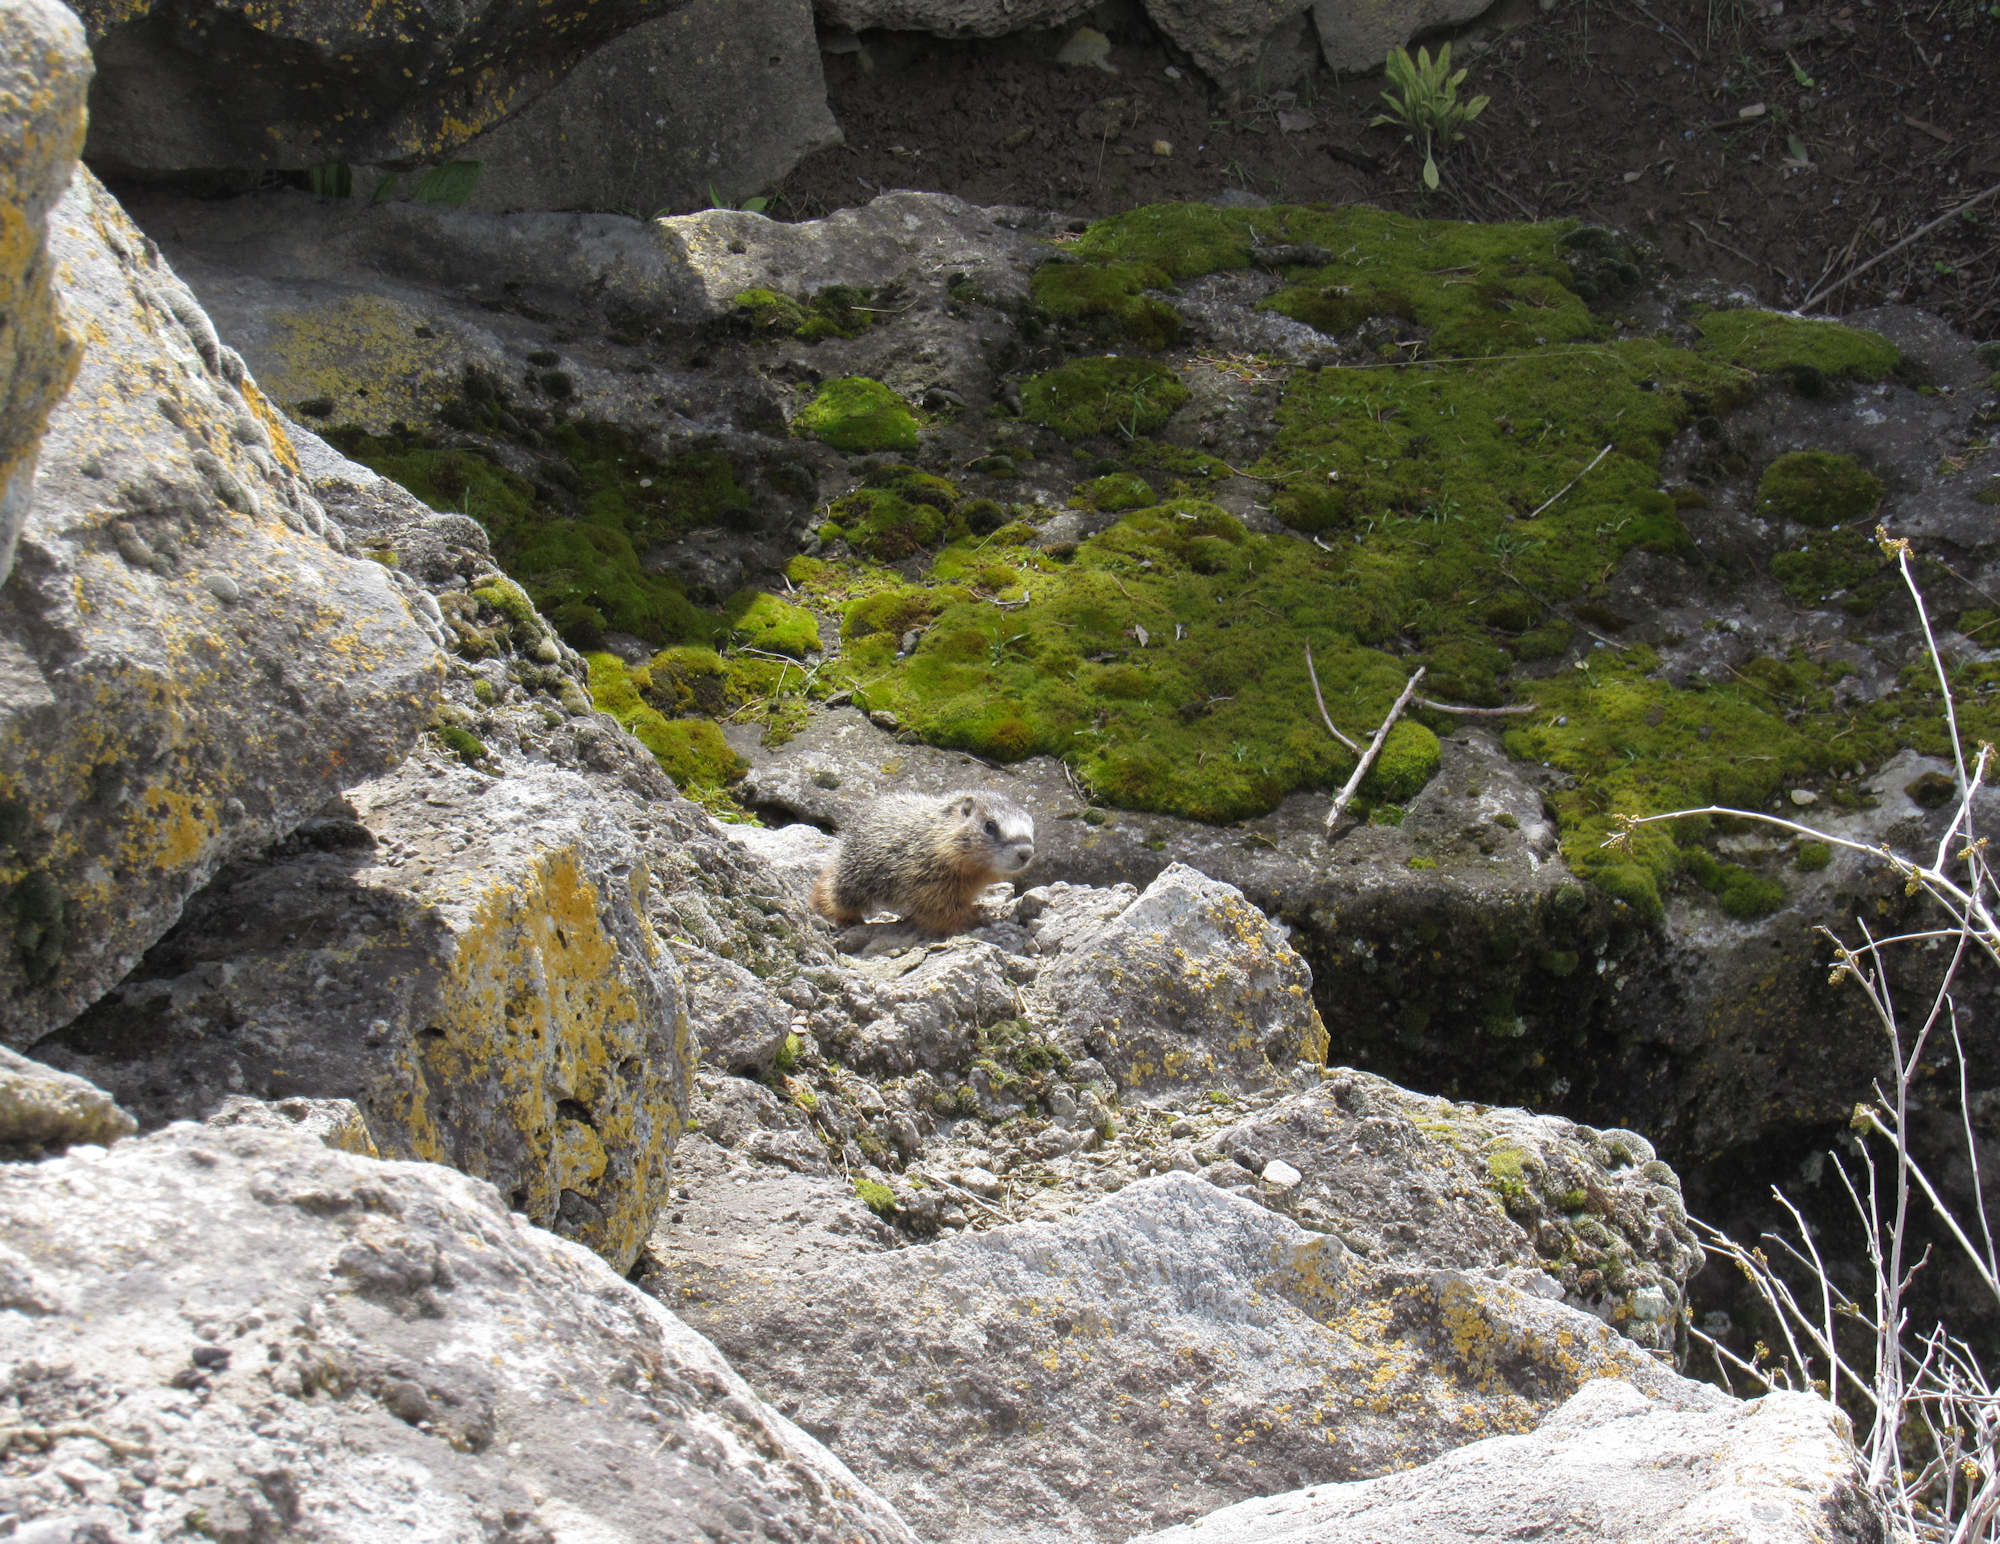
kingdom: Animalia
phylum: Chordata
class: Mammalia
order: Rodentia
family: Sciuridae
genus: Marmota
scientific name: Marmota flaviventris
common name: Yellow-bellied marmot
